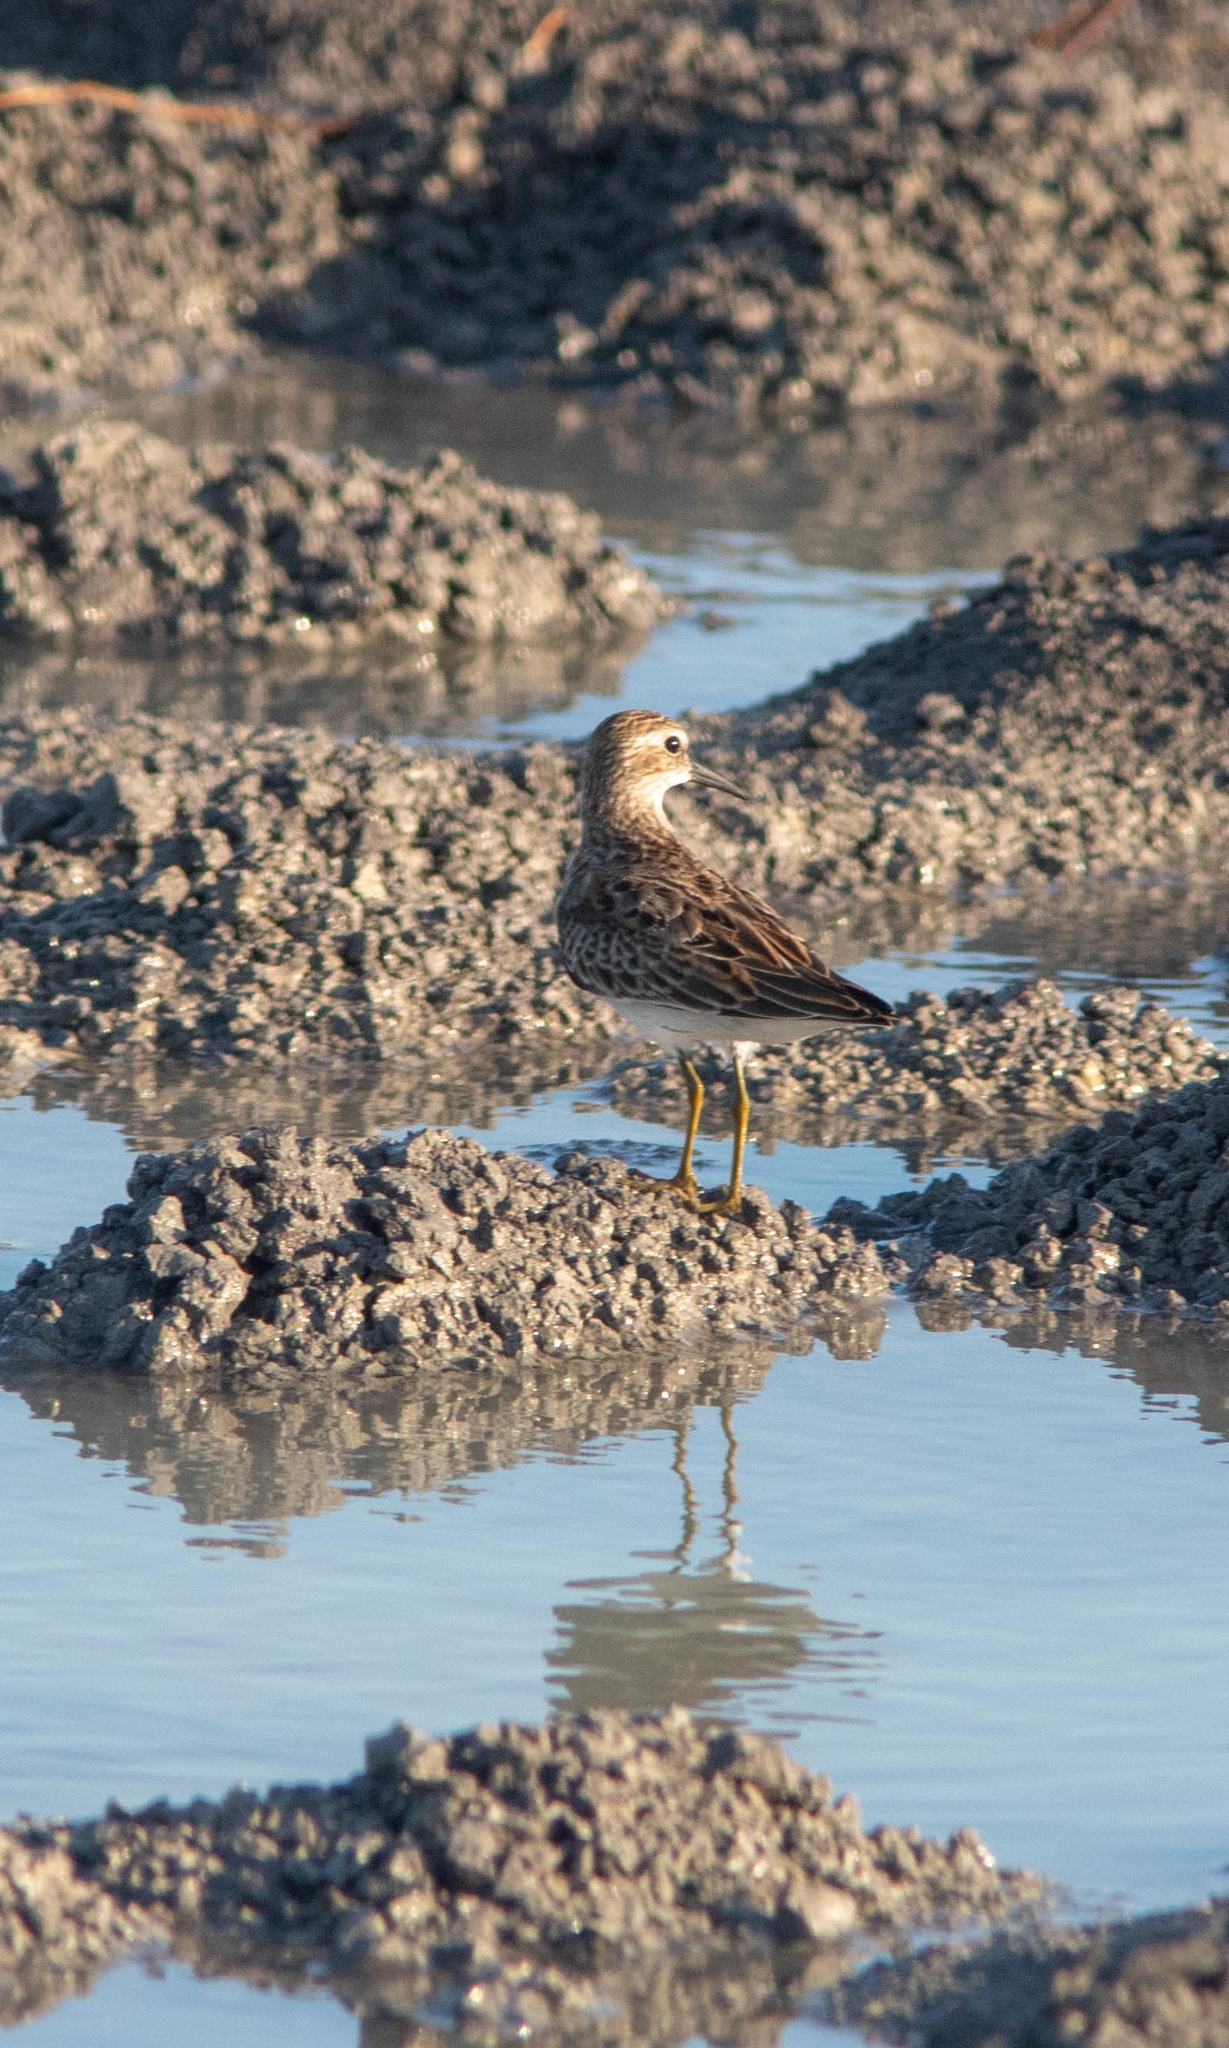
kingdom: Animalia
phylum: Chordata
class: Aves
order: Charadriiformes
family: Scolopacidae
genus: Calidris
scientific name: Calidris minutilla
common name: Least sandpiper
